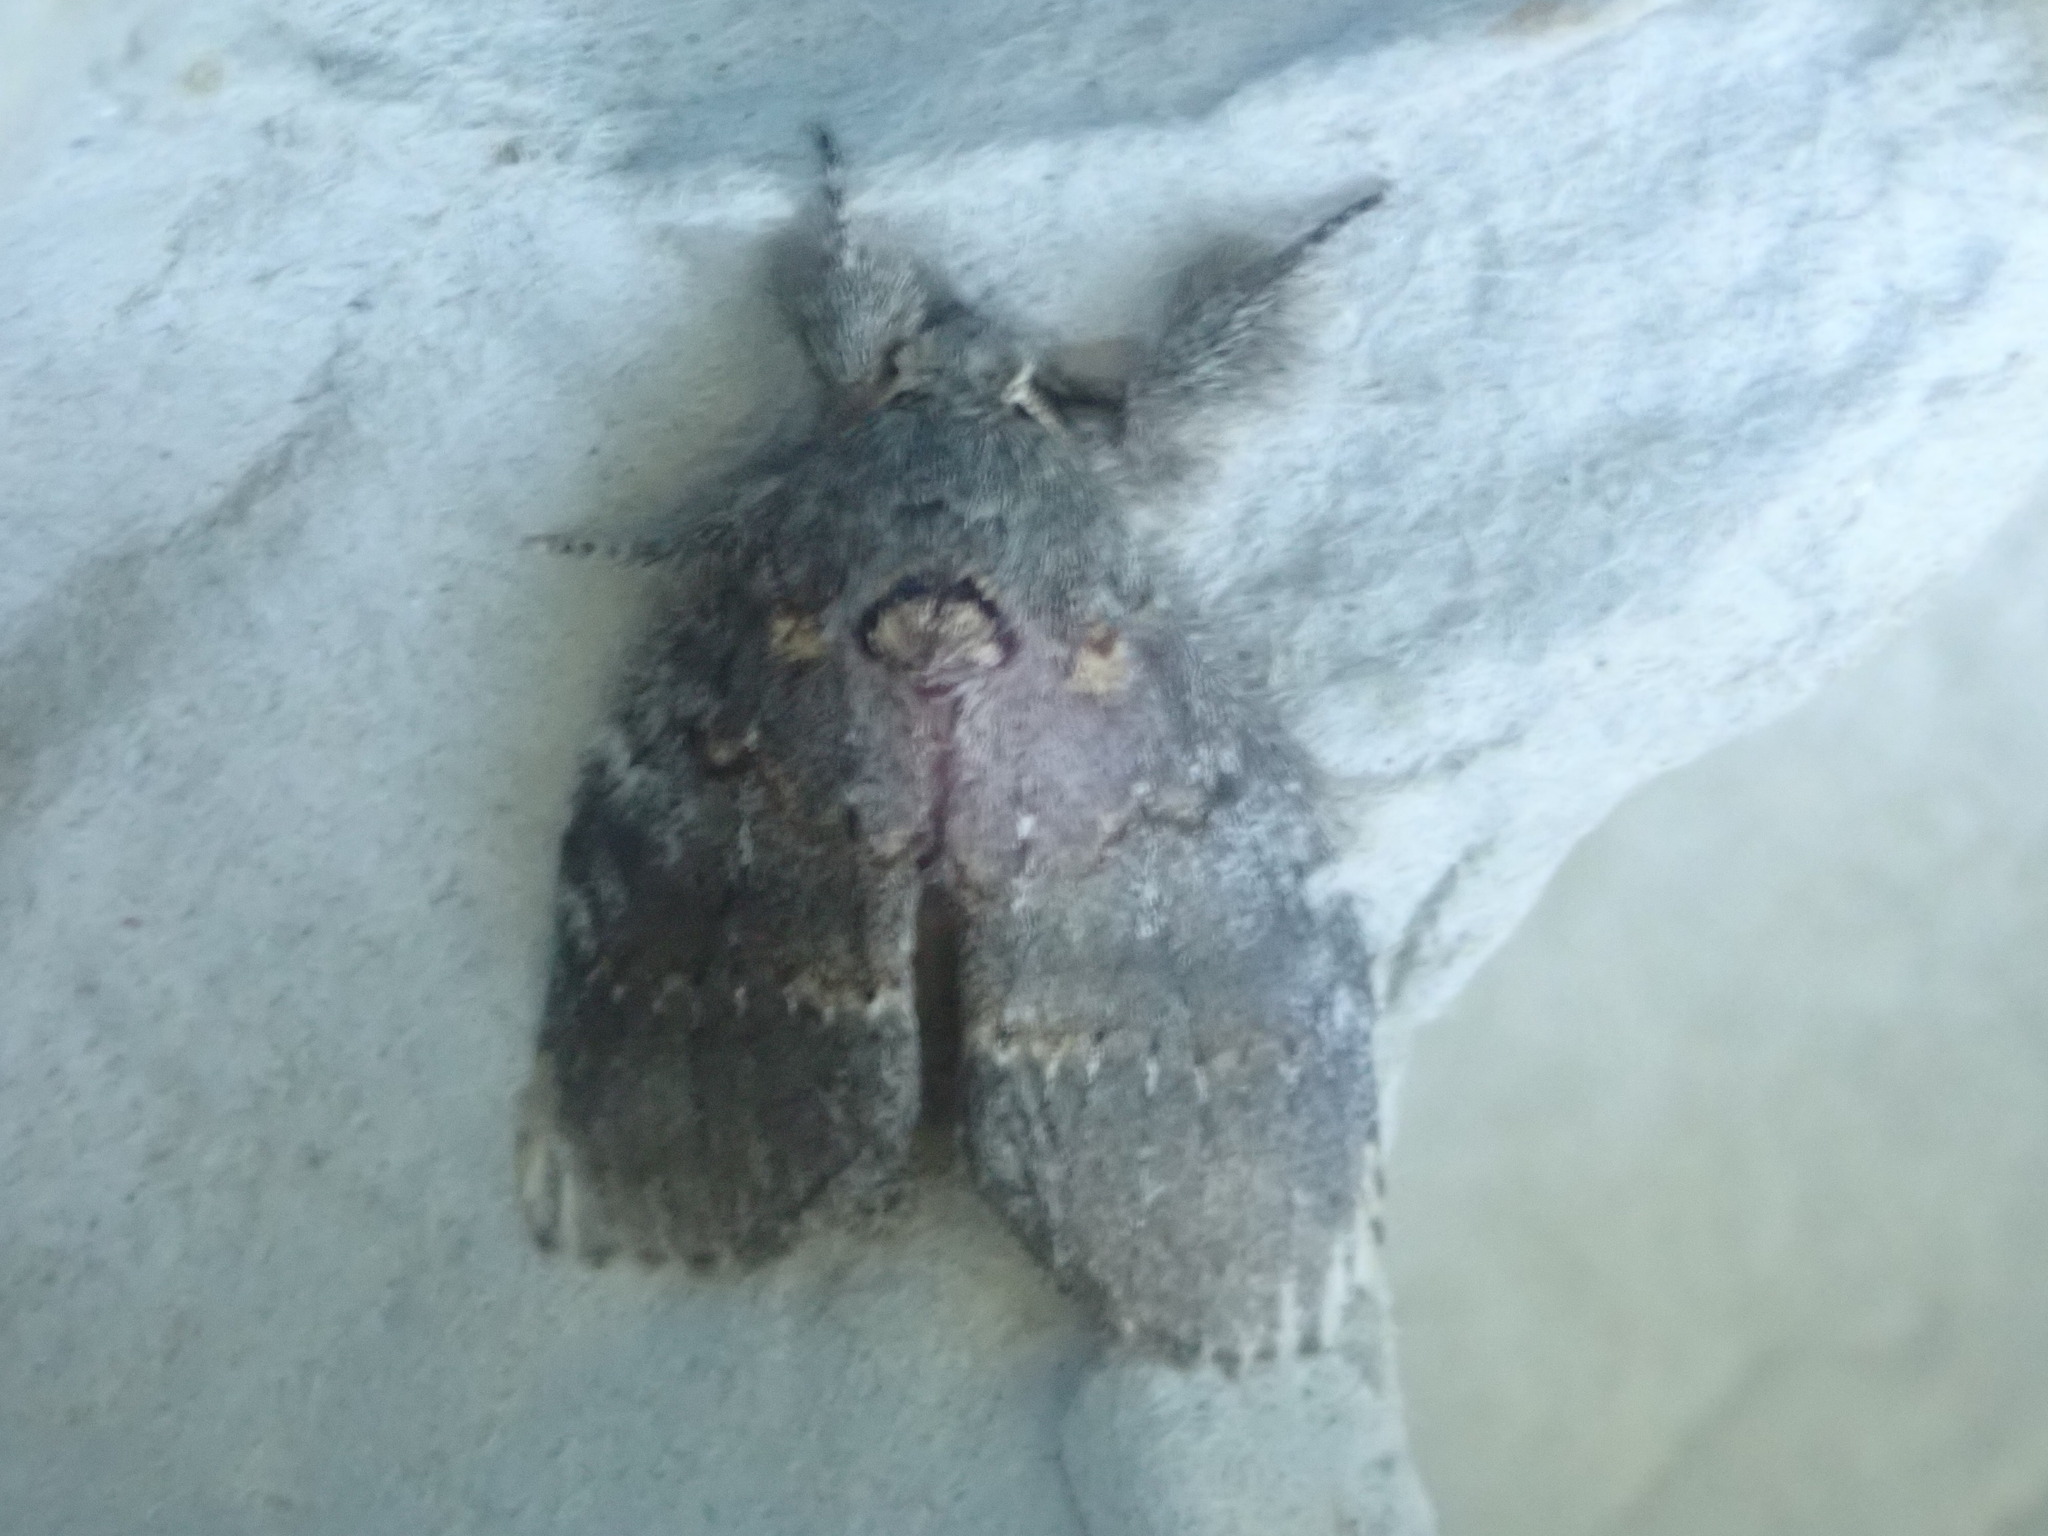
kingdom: Animalia
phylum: Arthropoda
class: Insecta
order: Lepidoptera
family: Notodontidae
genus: Peridea
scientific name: Peridea angulosa
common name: Angulose prominent
